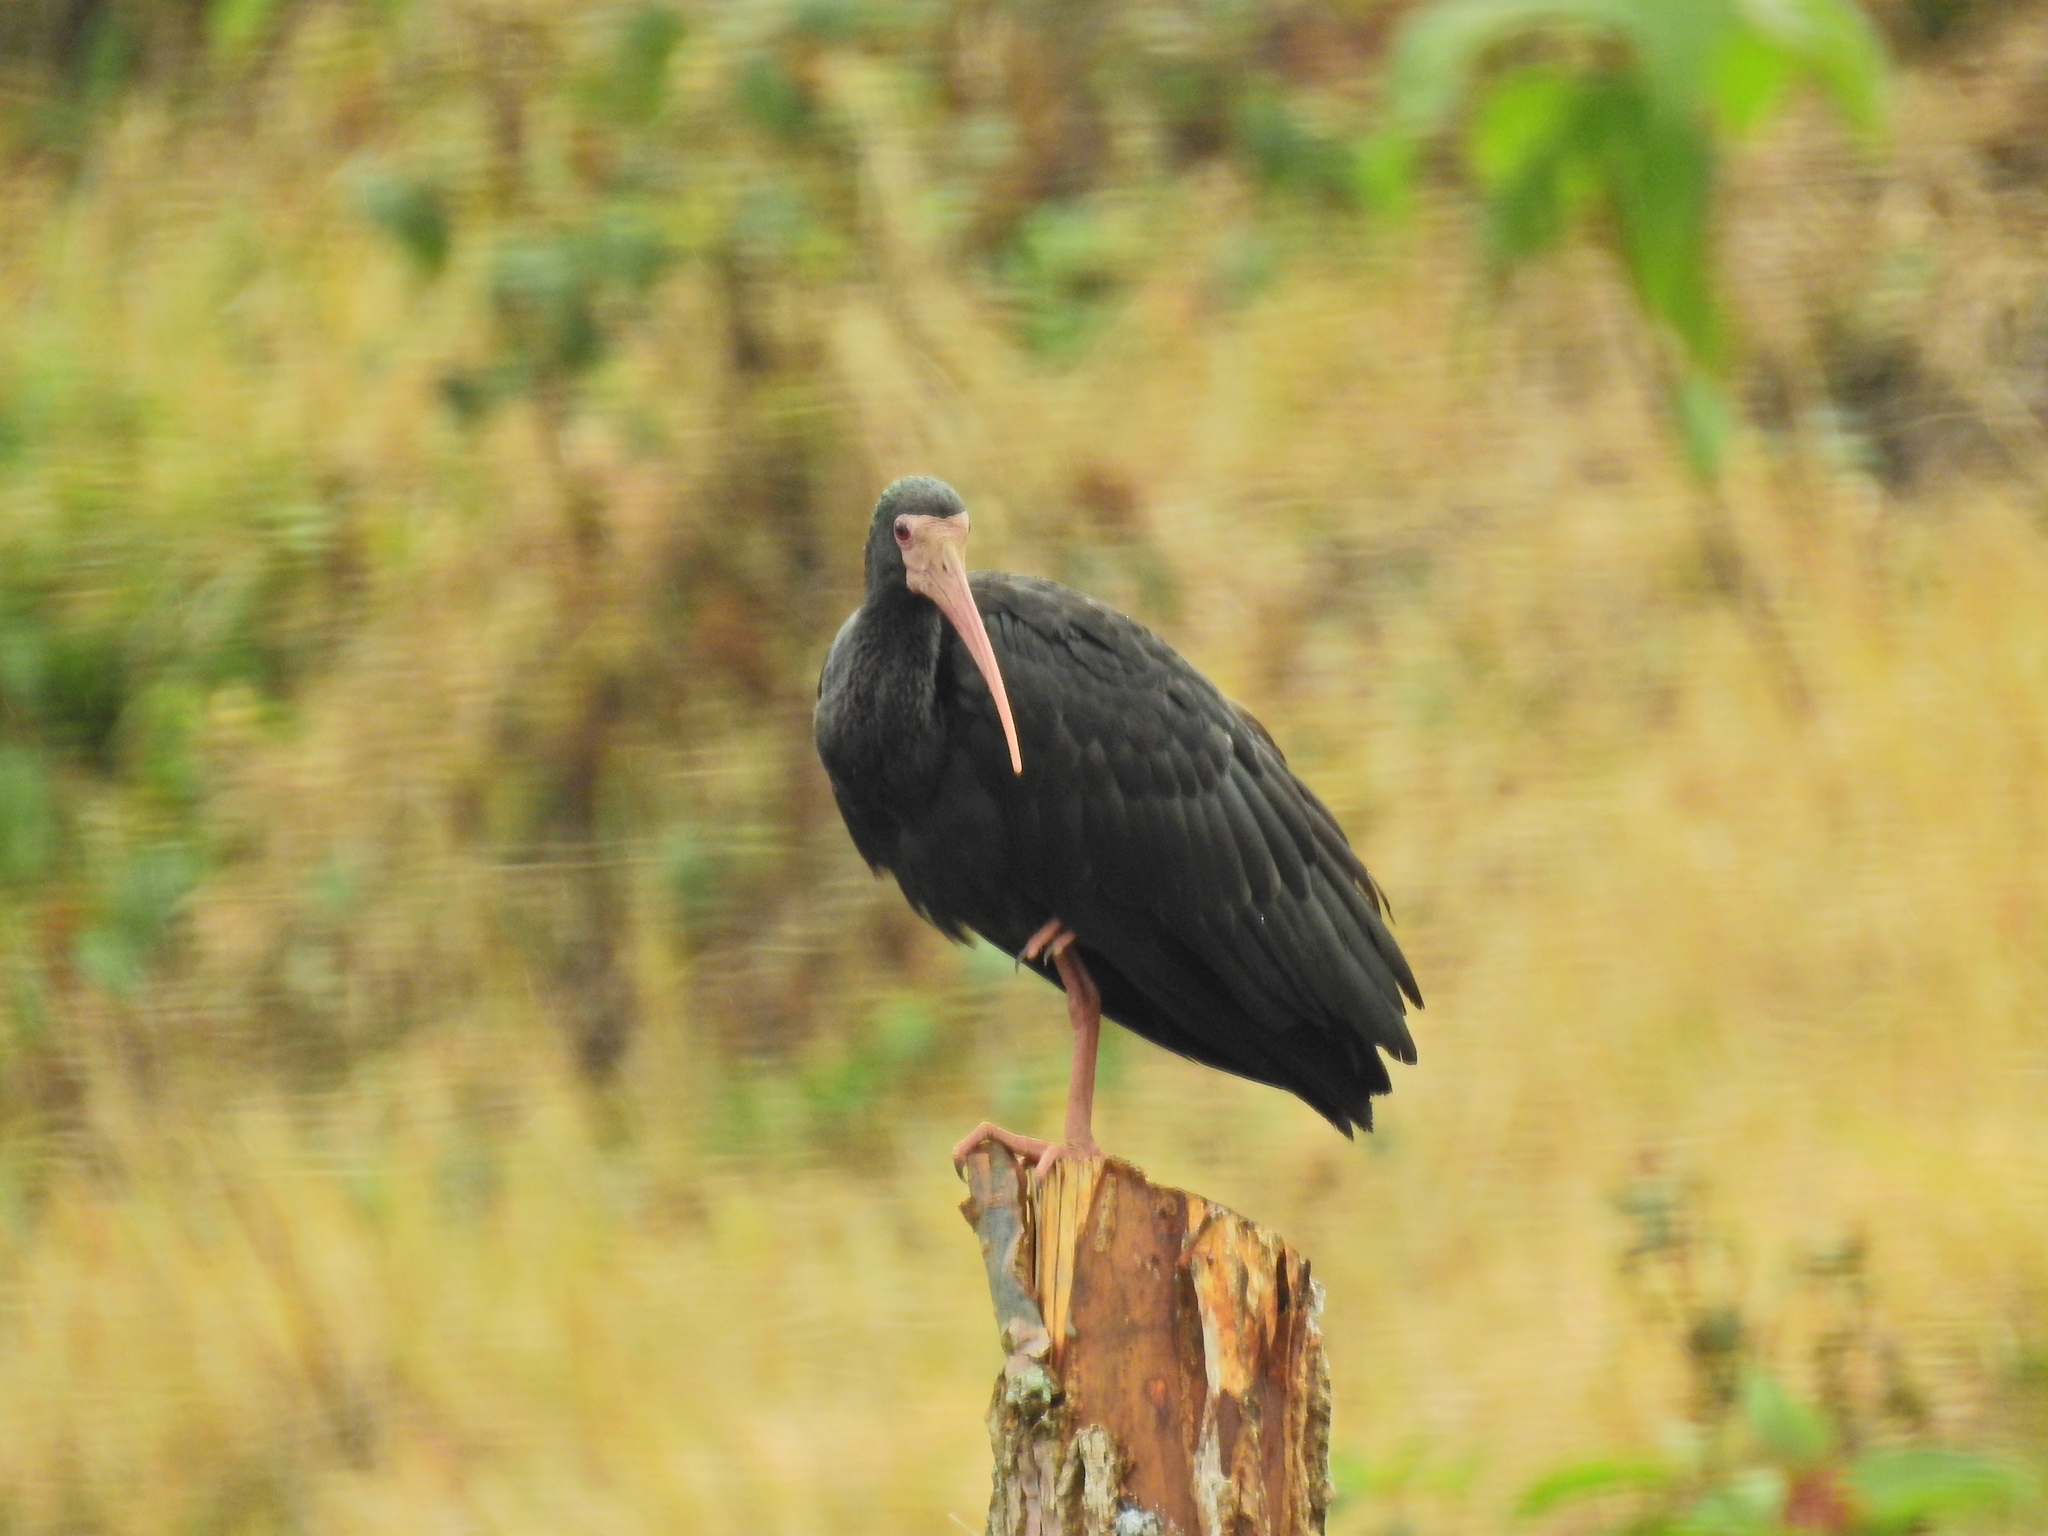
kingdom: Animalia
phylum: Chordata
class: Aves
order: Pelecaniformes
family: Threskiornithidae
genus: Phimosus
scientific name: Phimosus infuscatus
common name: Bare-faced ibis
